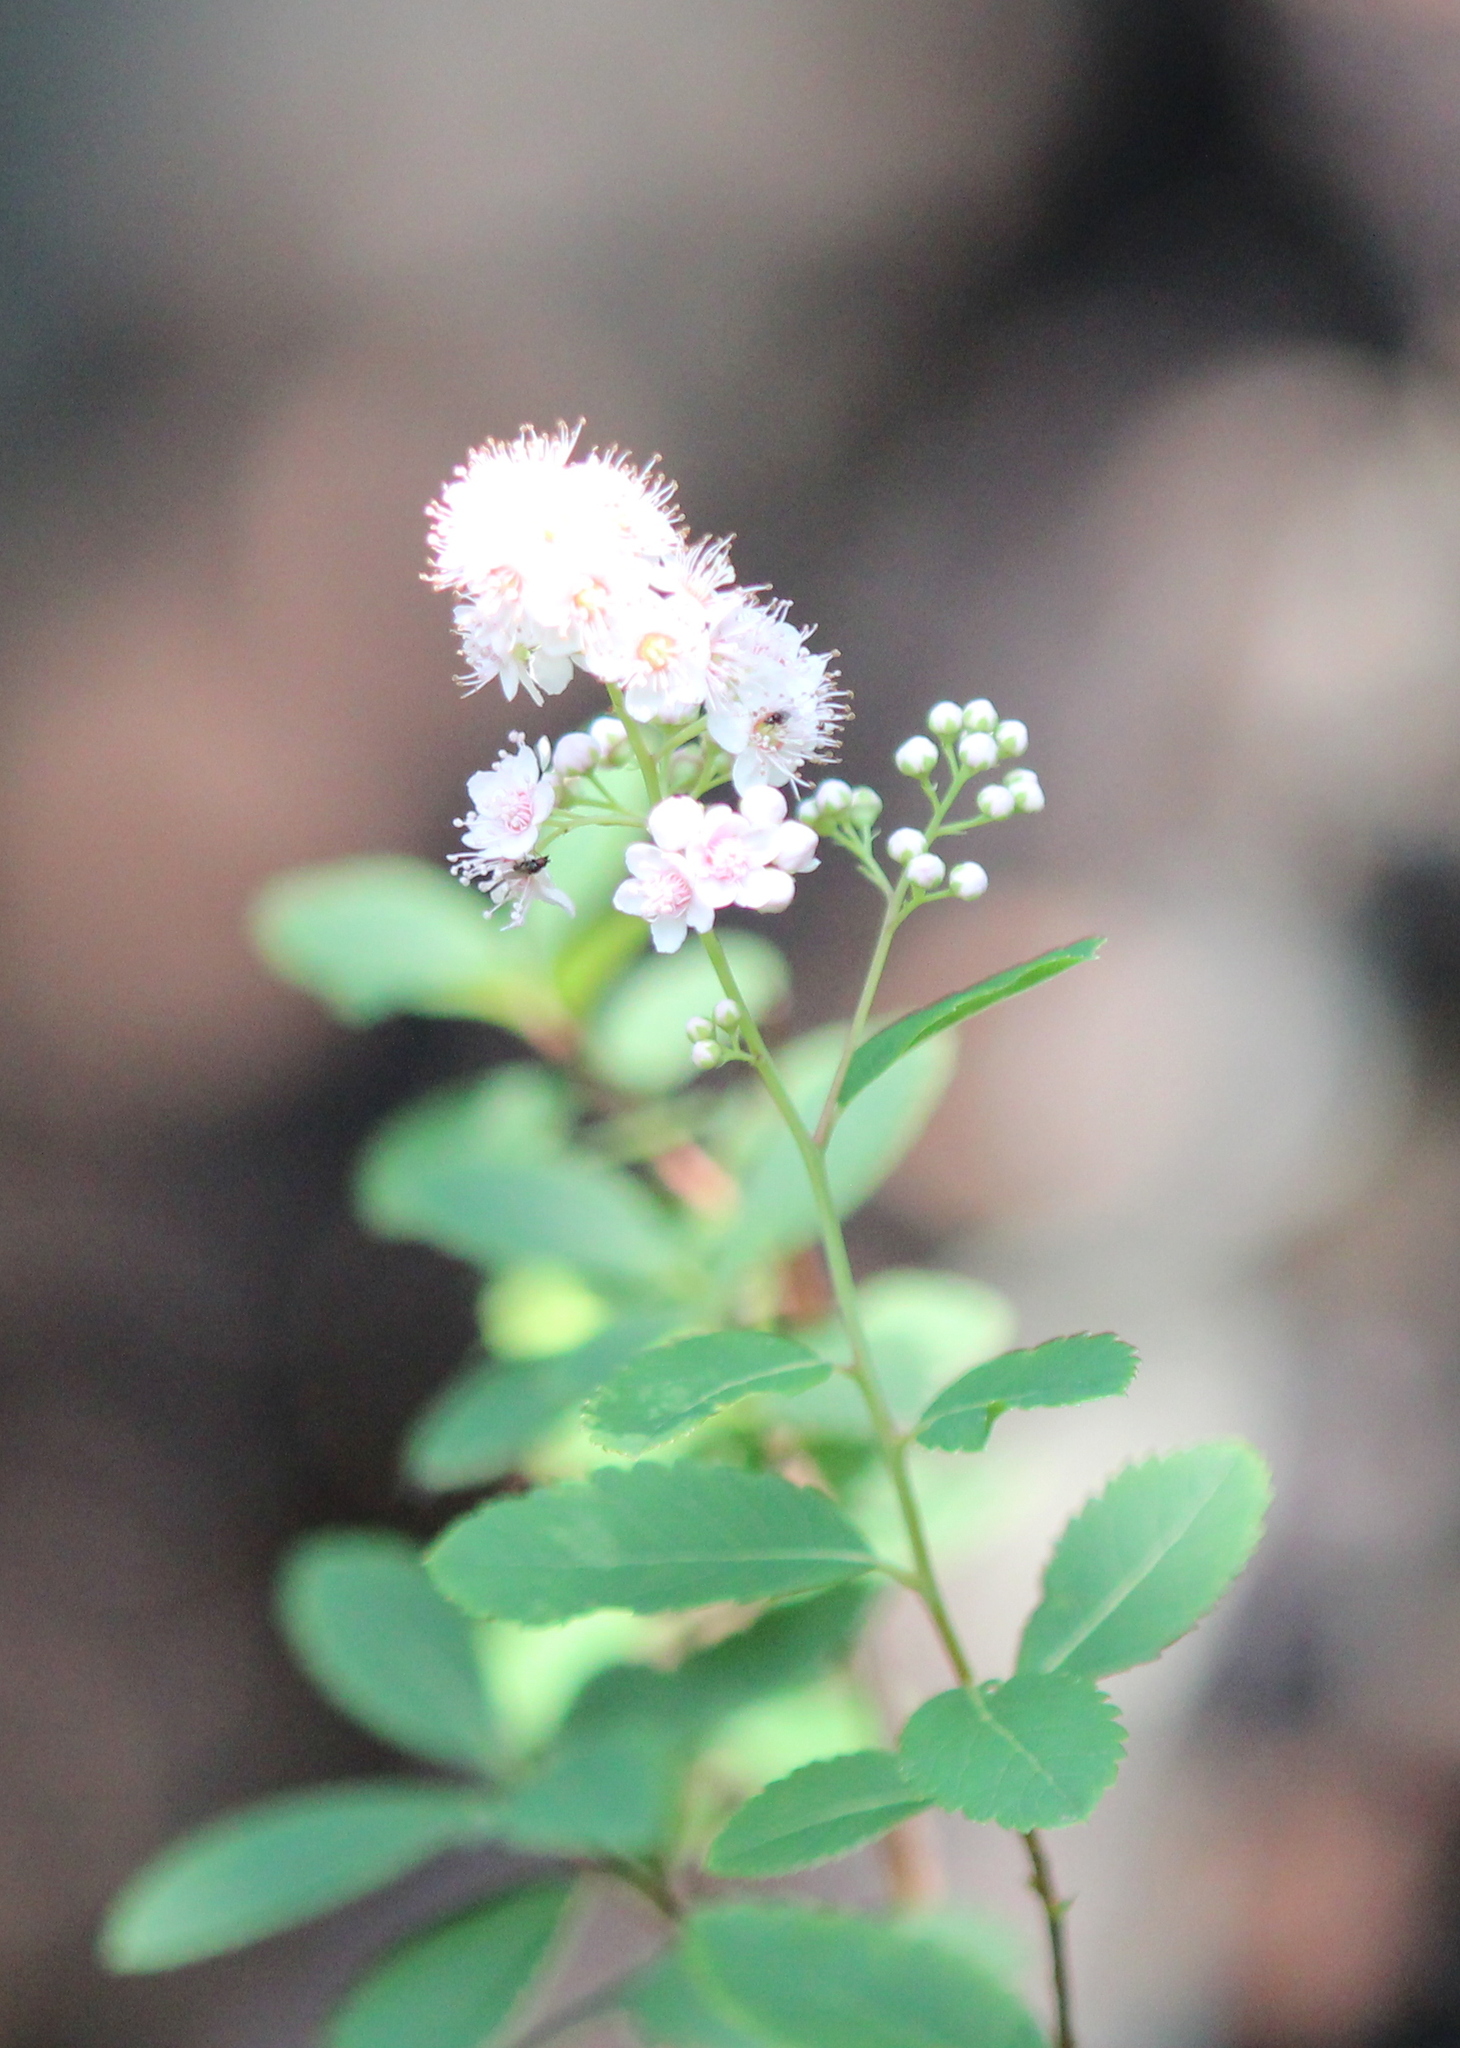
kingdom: Plantae
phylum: Tracheophyta
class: Magnoliopsida
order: Rosales
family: Rosaceae
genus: Spiraea
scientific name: Spiraea alba
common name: Pale bridewort
